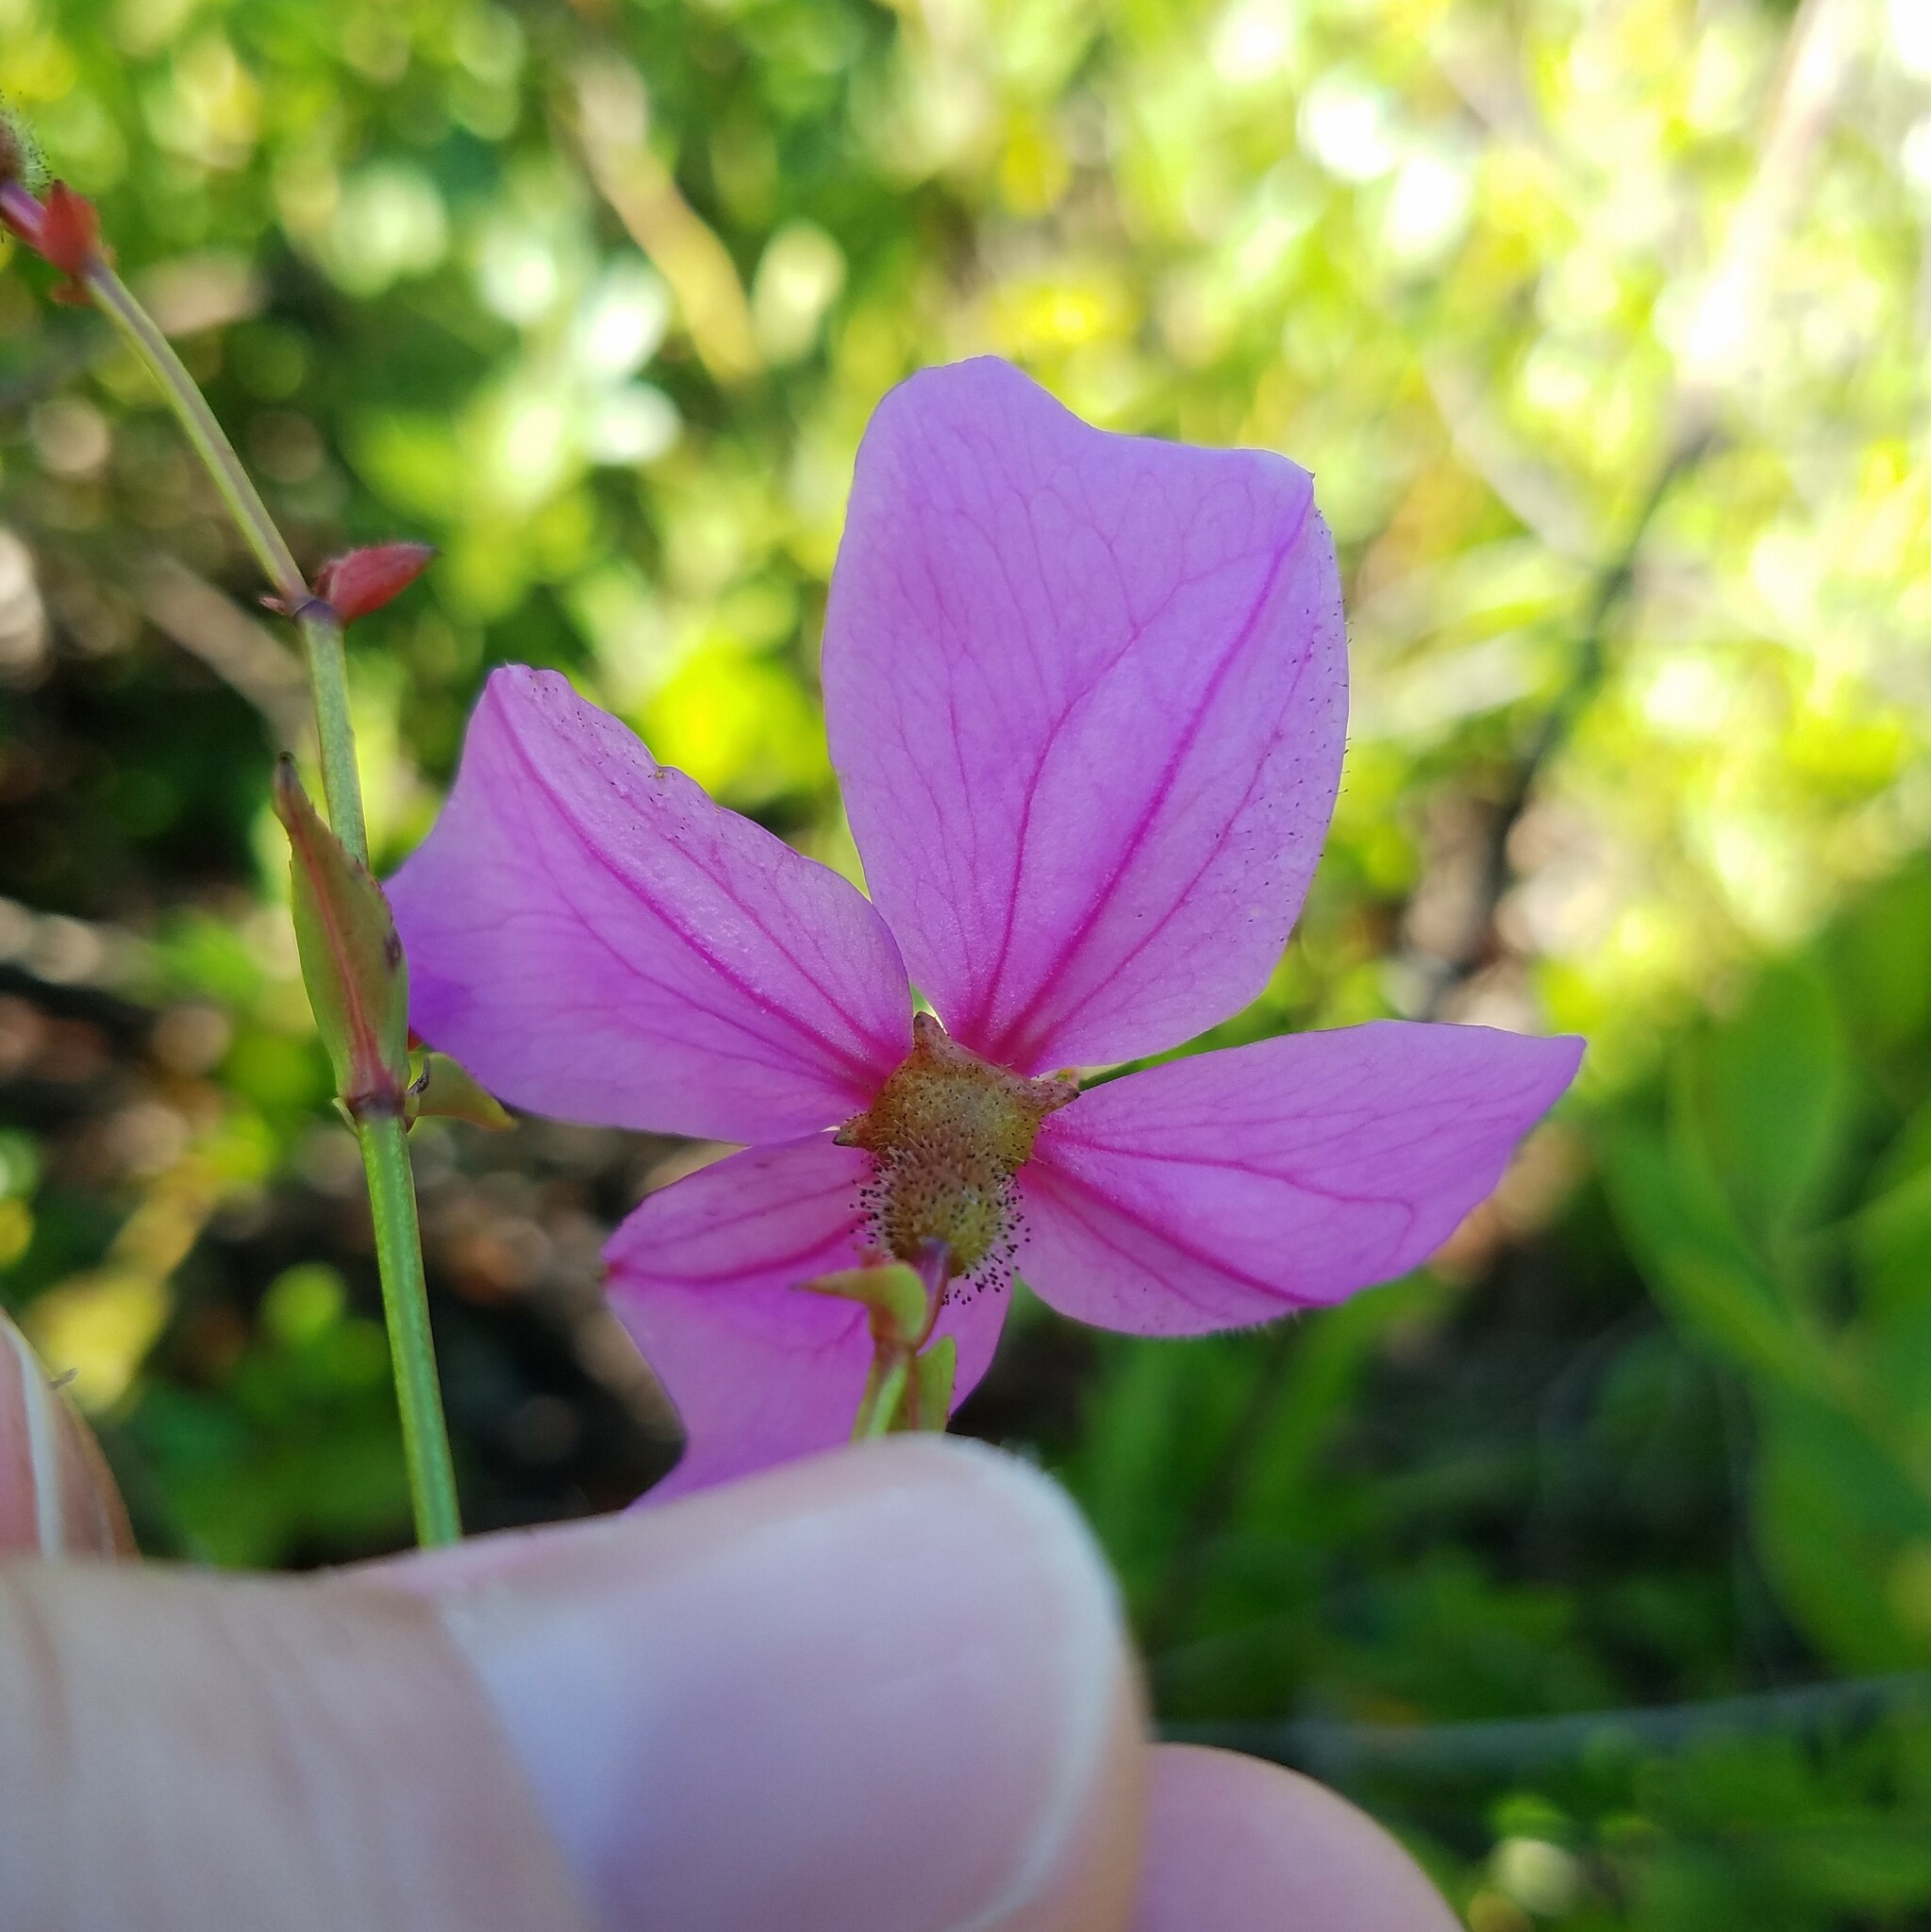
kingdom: Plantae
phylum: Tracheophyta
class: Magnoliopsida
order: Myrtales
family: Melastomataceae
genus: Rhexia
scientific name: Rhexia alifanus
